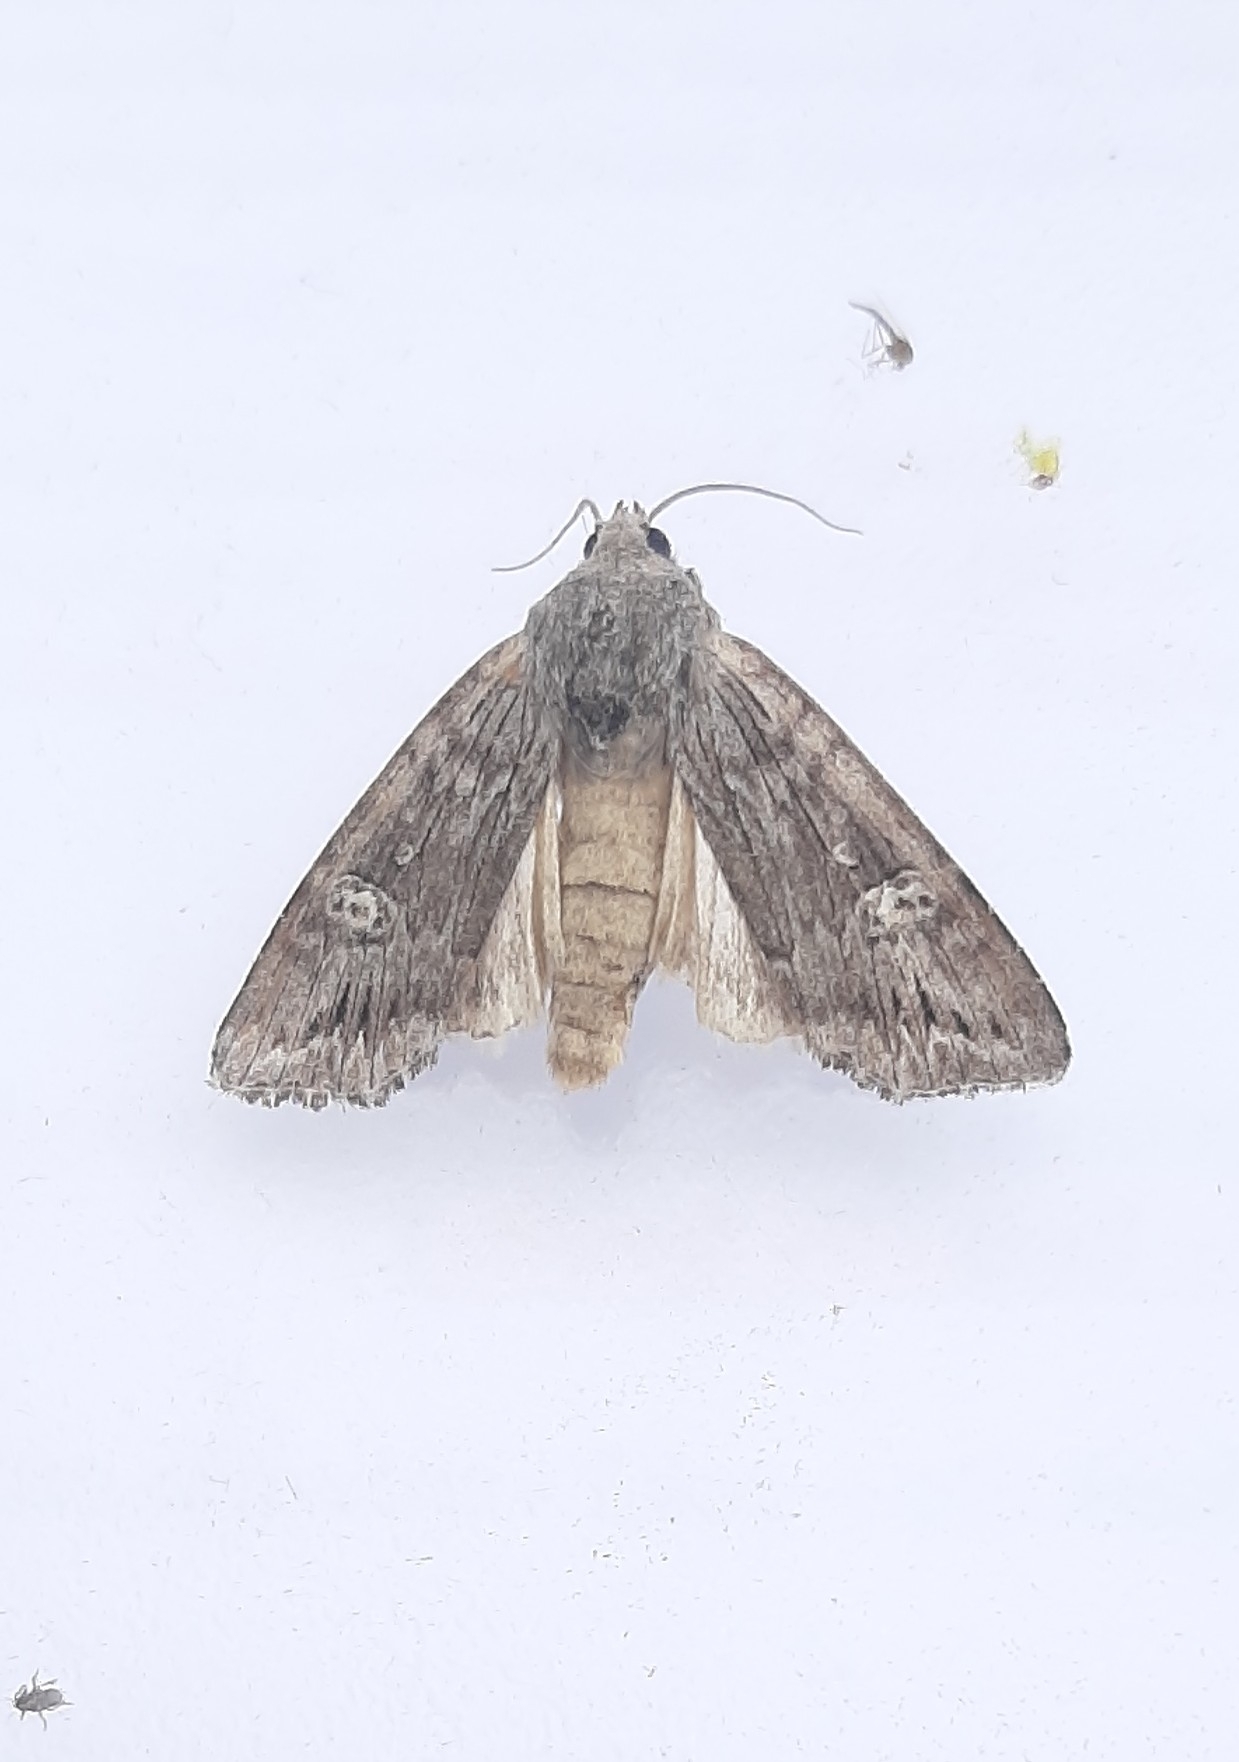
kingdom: Animalia
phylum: Arthropoda
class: Insecta
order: Lepidoptera
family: Noctuidae
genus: Xylena
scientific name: Xylena solidaginis
